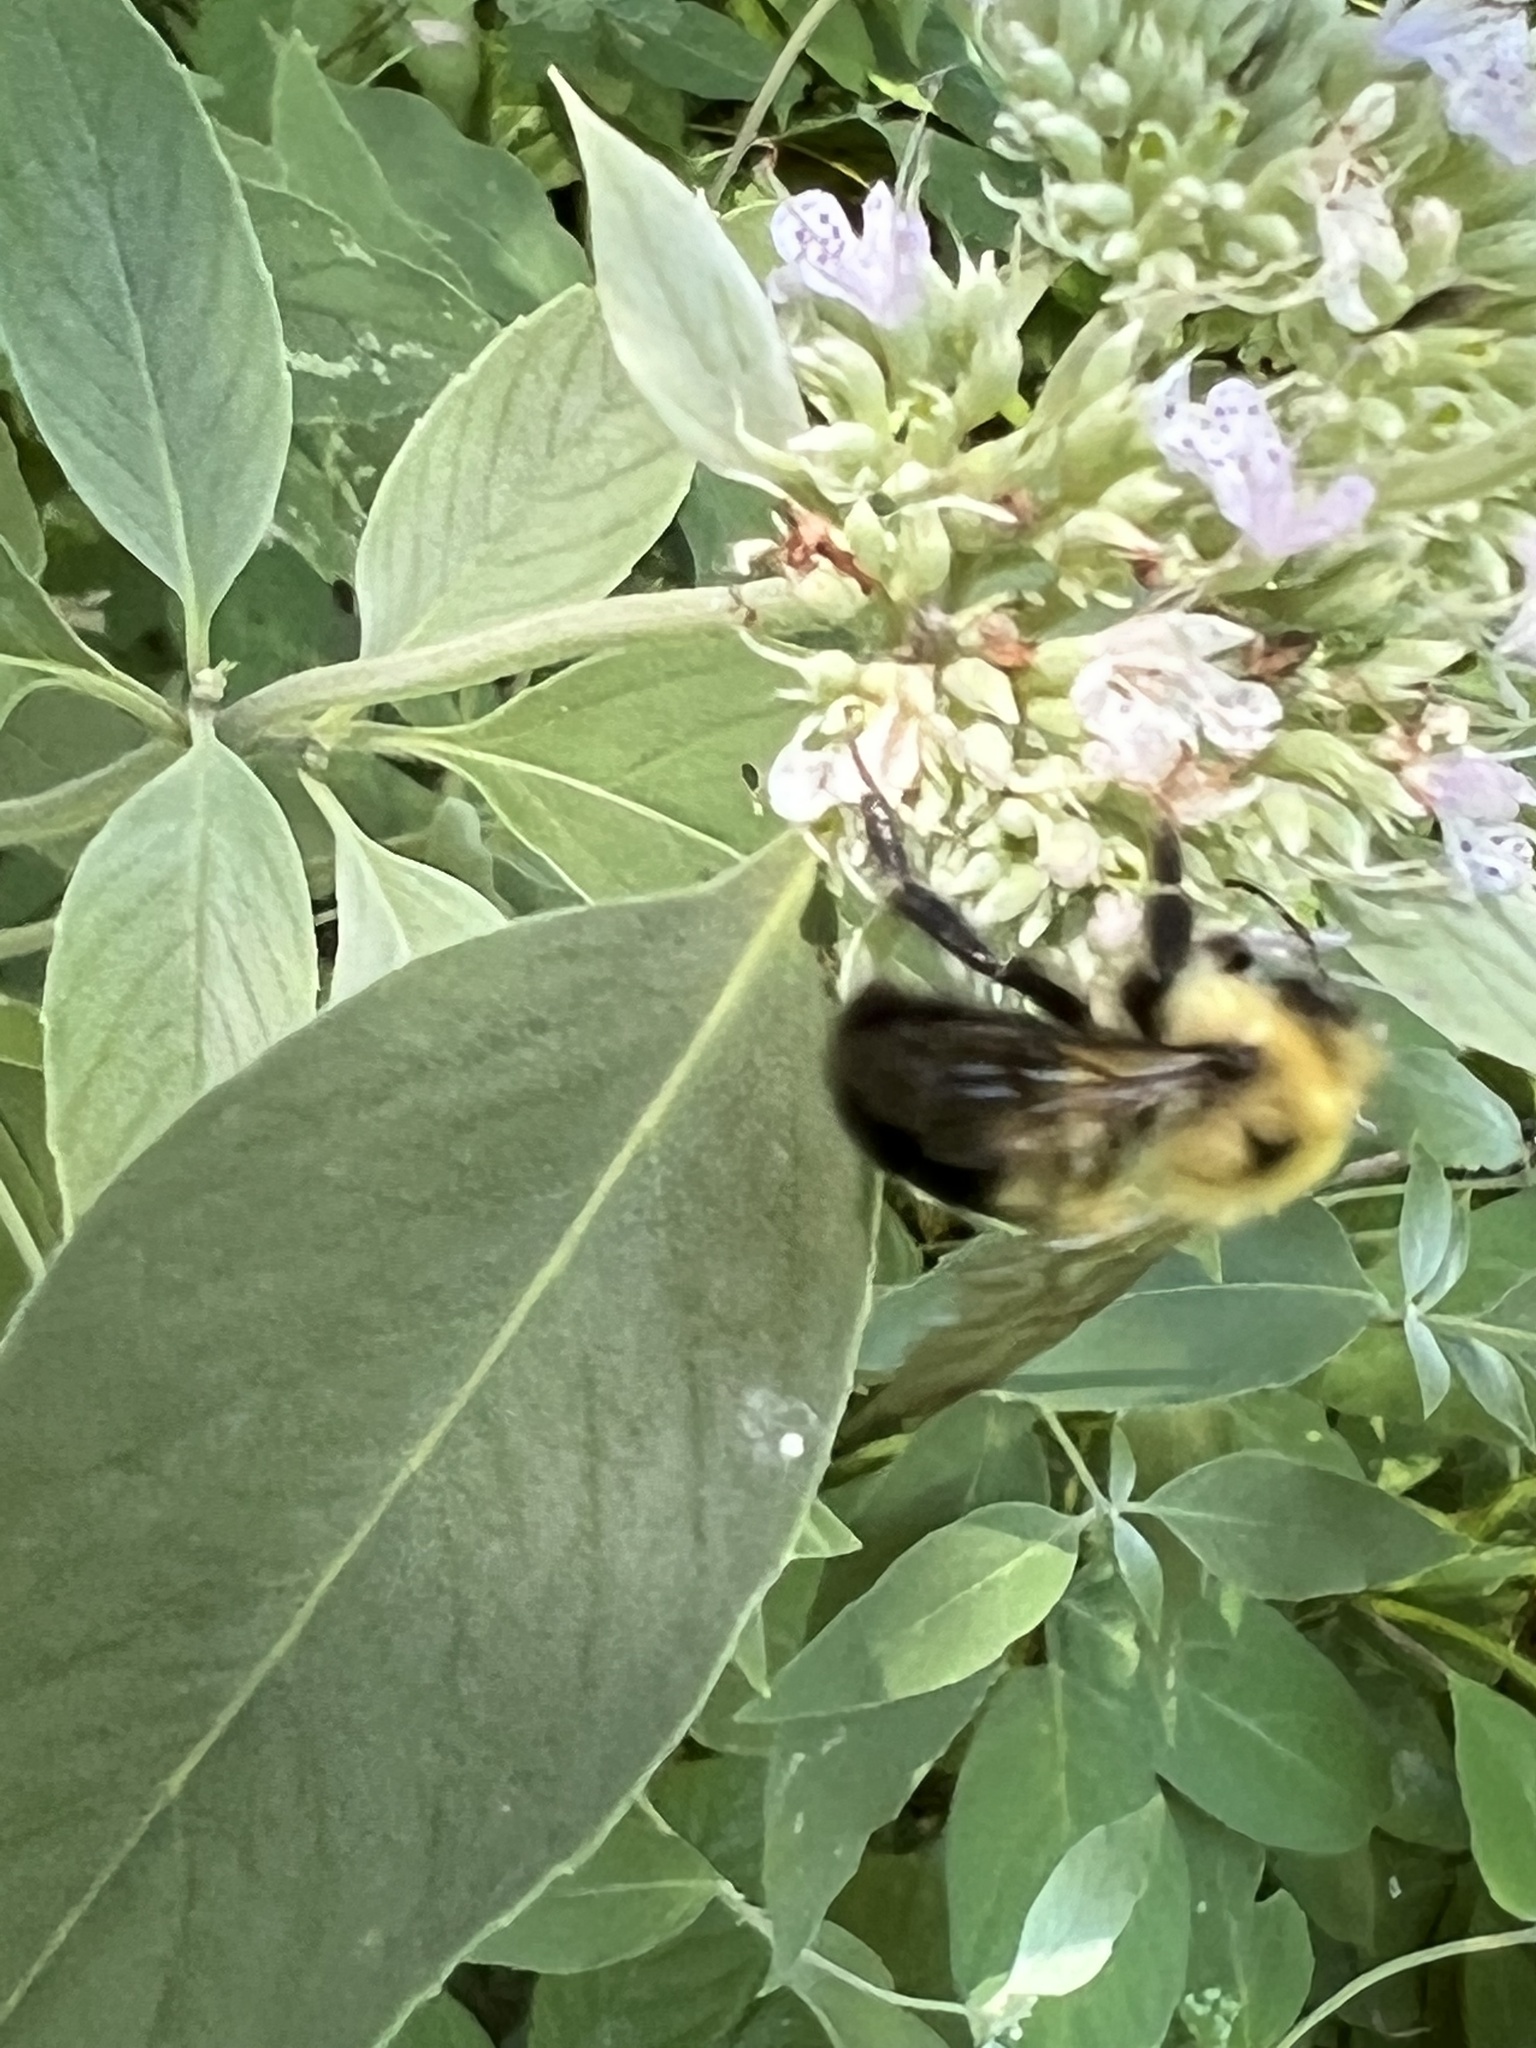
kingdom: Animalia
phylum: Arthropoda
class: Insecta
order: Hymenoptera
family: Apidae
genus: Bombus
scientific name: Bombus bimaculatus
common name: Two-spotted bumble bee
